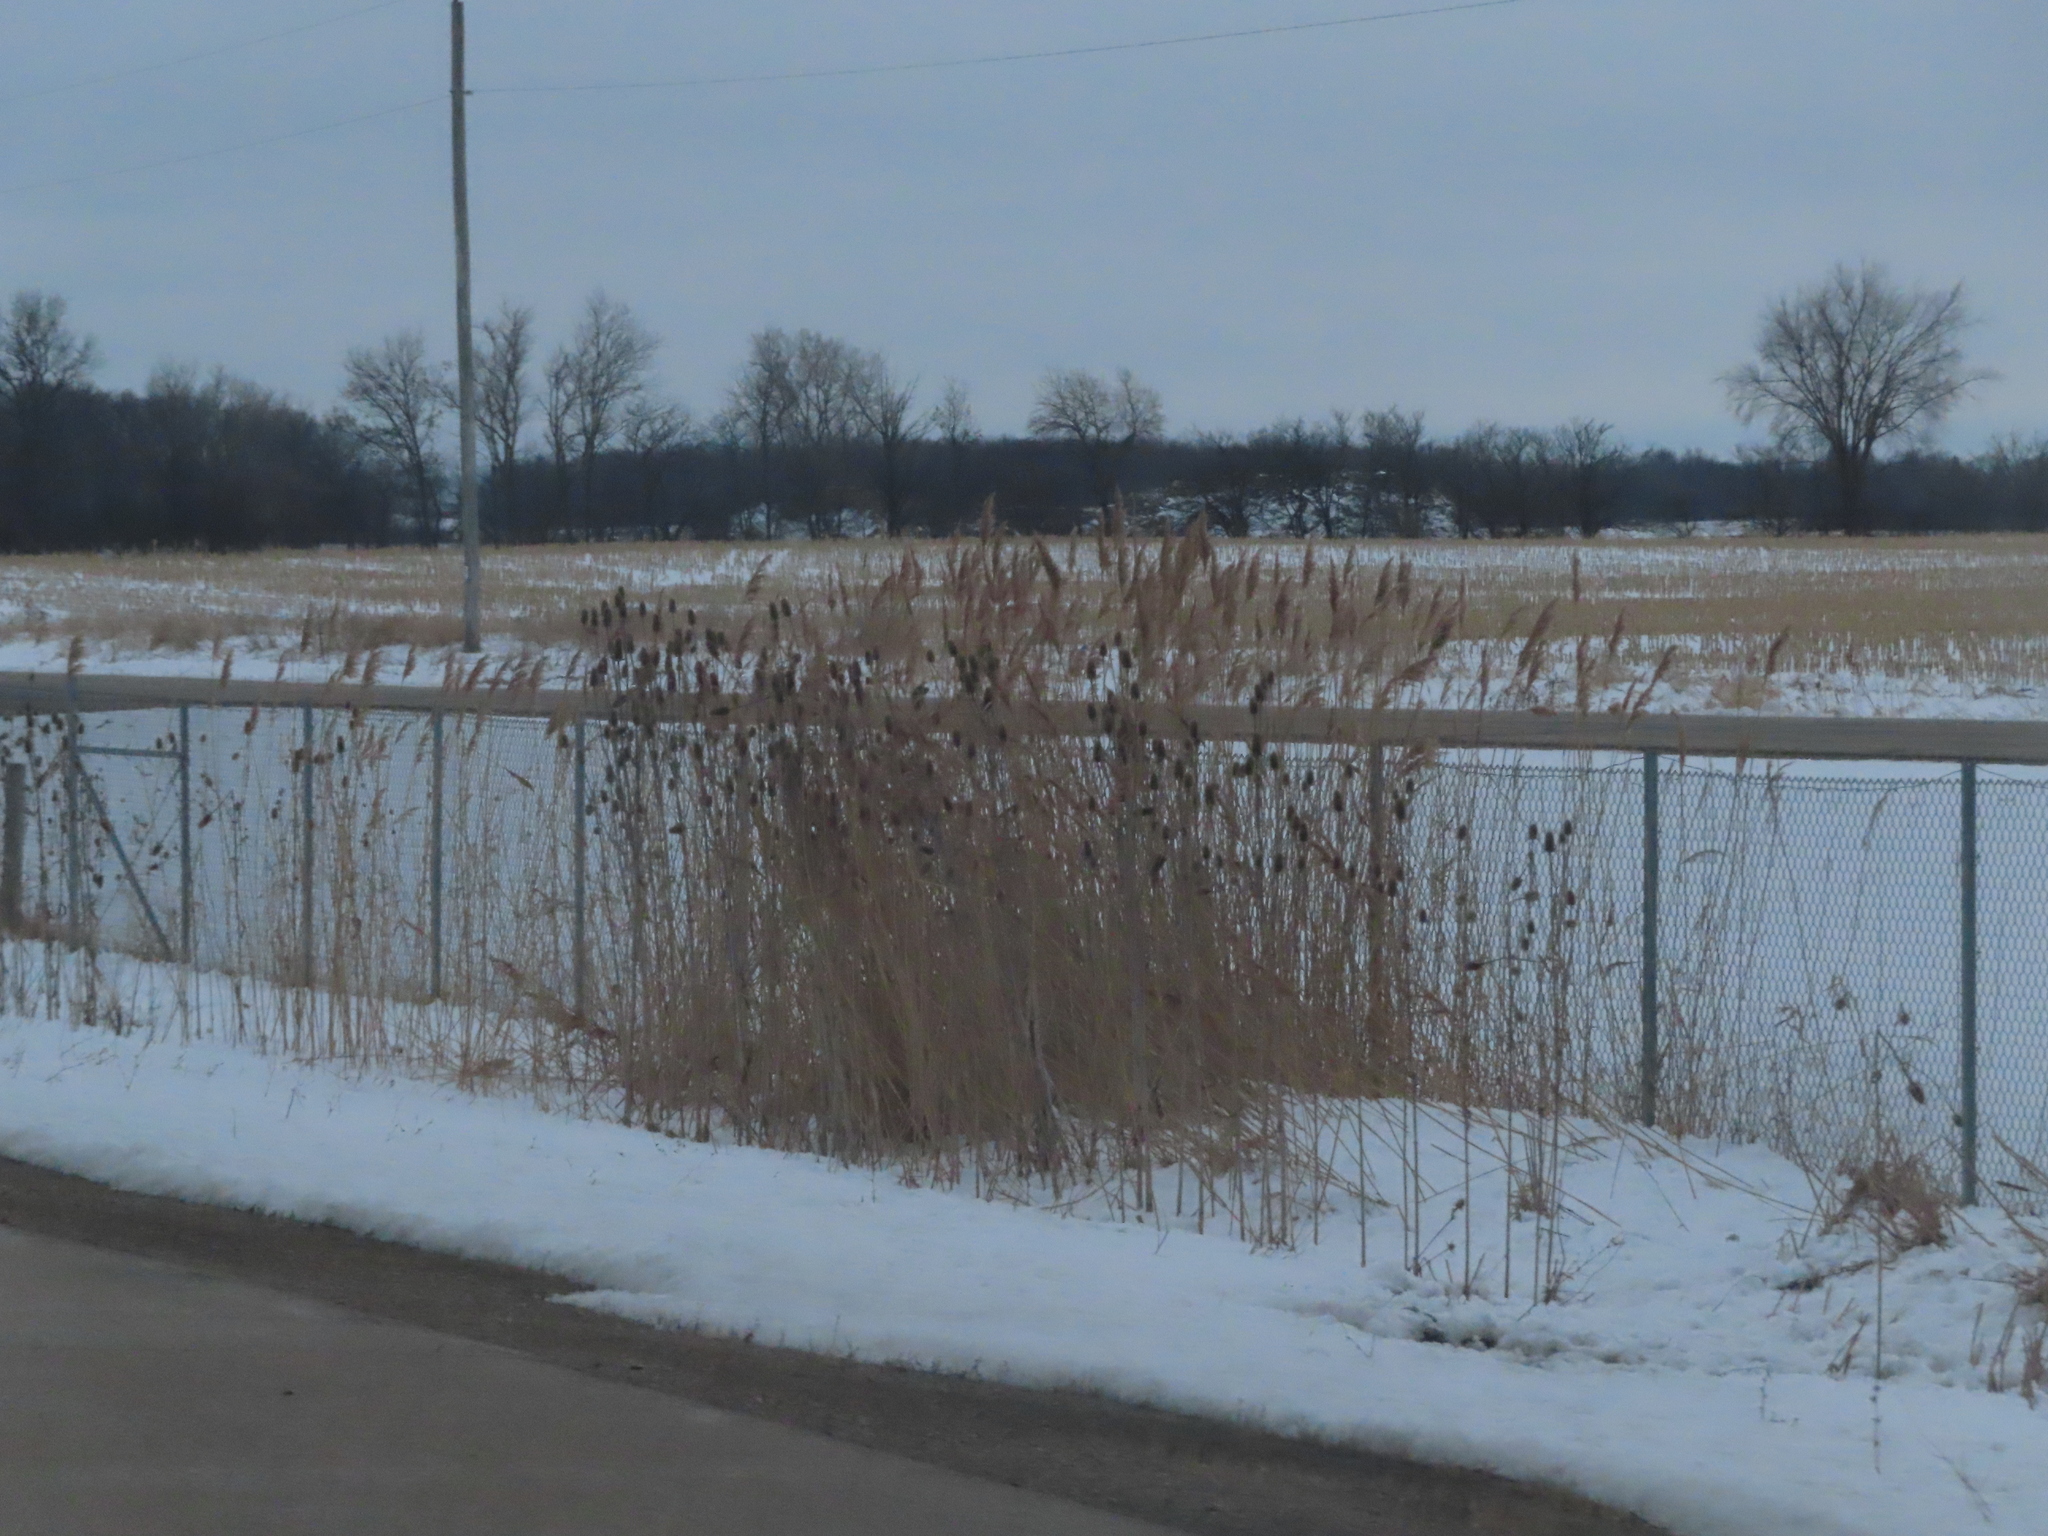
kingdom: Plantae
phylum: Tracheophyta
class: Magnoliopsida
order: Dipsacales
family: Caprifoliaceae
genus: Dipsacus
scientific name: Dipsacus laciniatus
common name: Cut-leaved teasel
